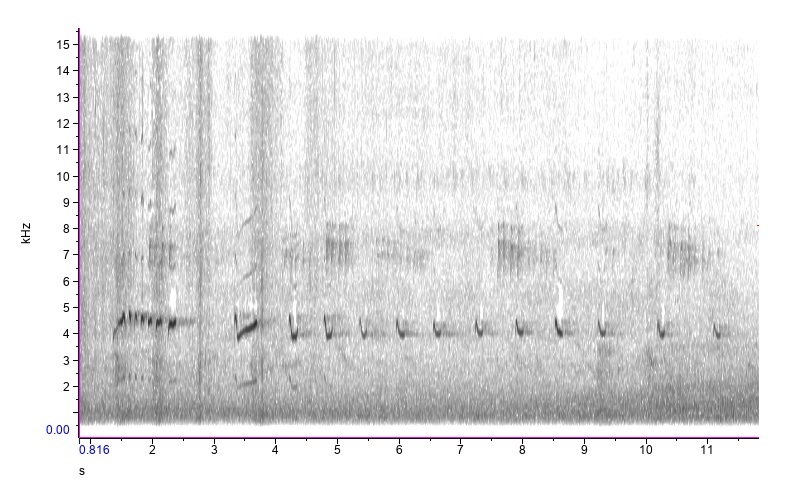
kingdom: Animalia
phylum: Chordata
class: Aves
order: Charadriiformes
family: Charadriidae
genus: Charadrius
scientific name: Charadrius vociferus
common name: Killdeer
